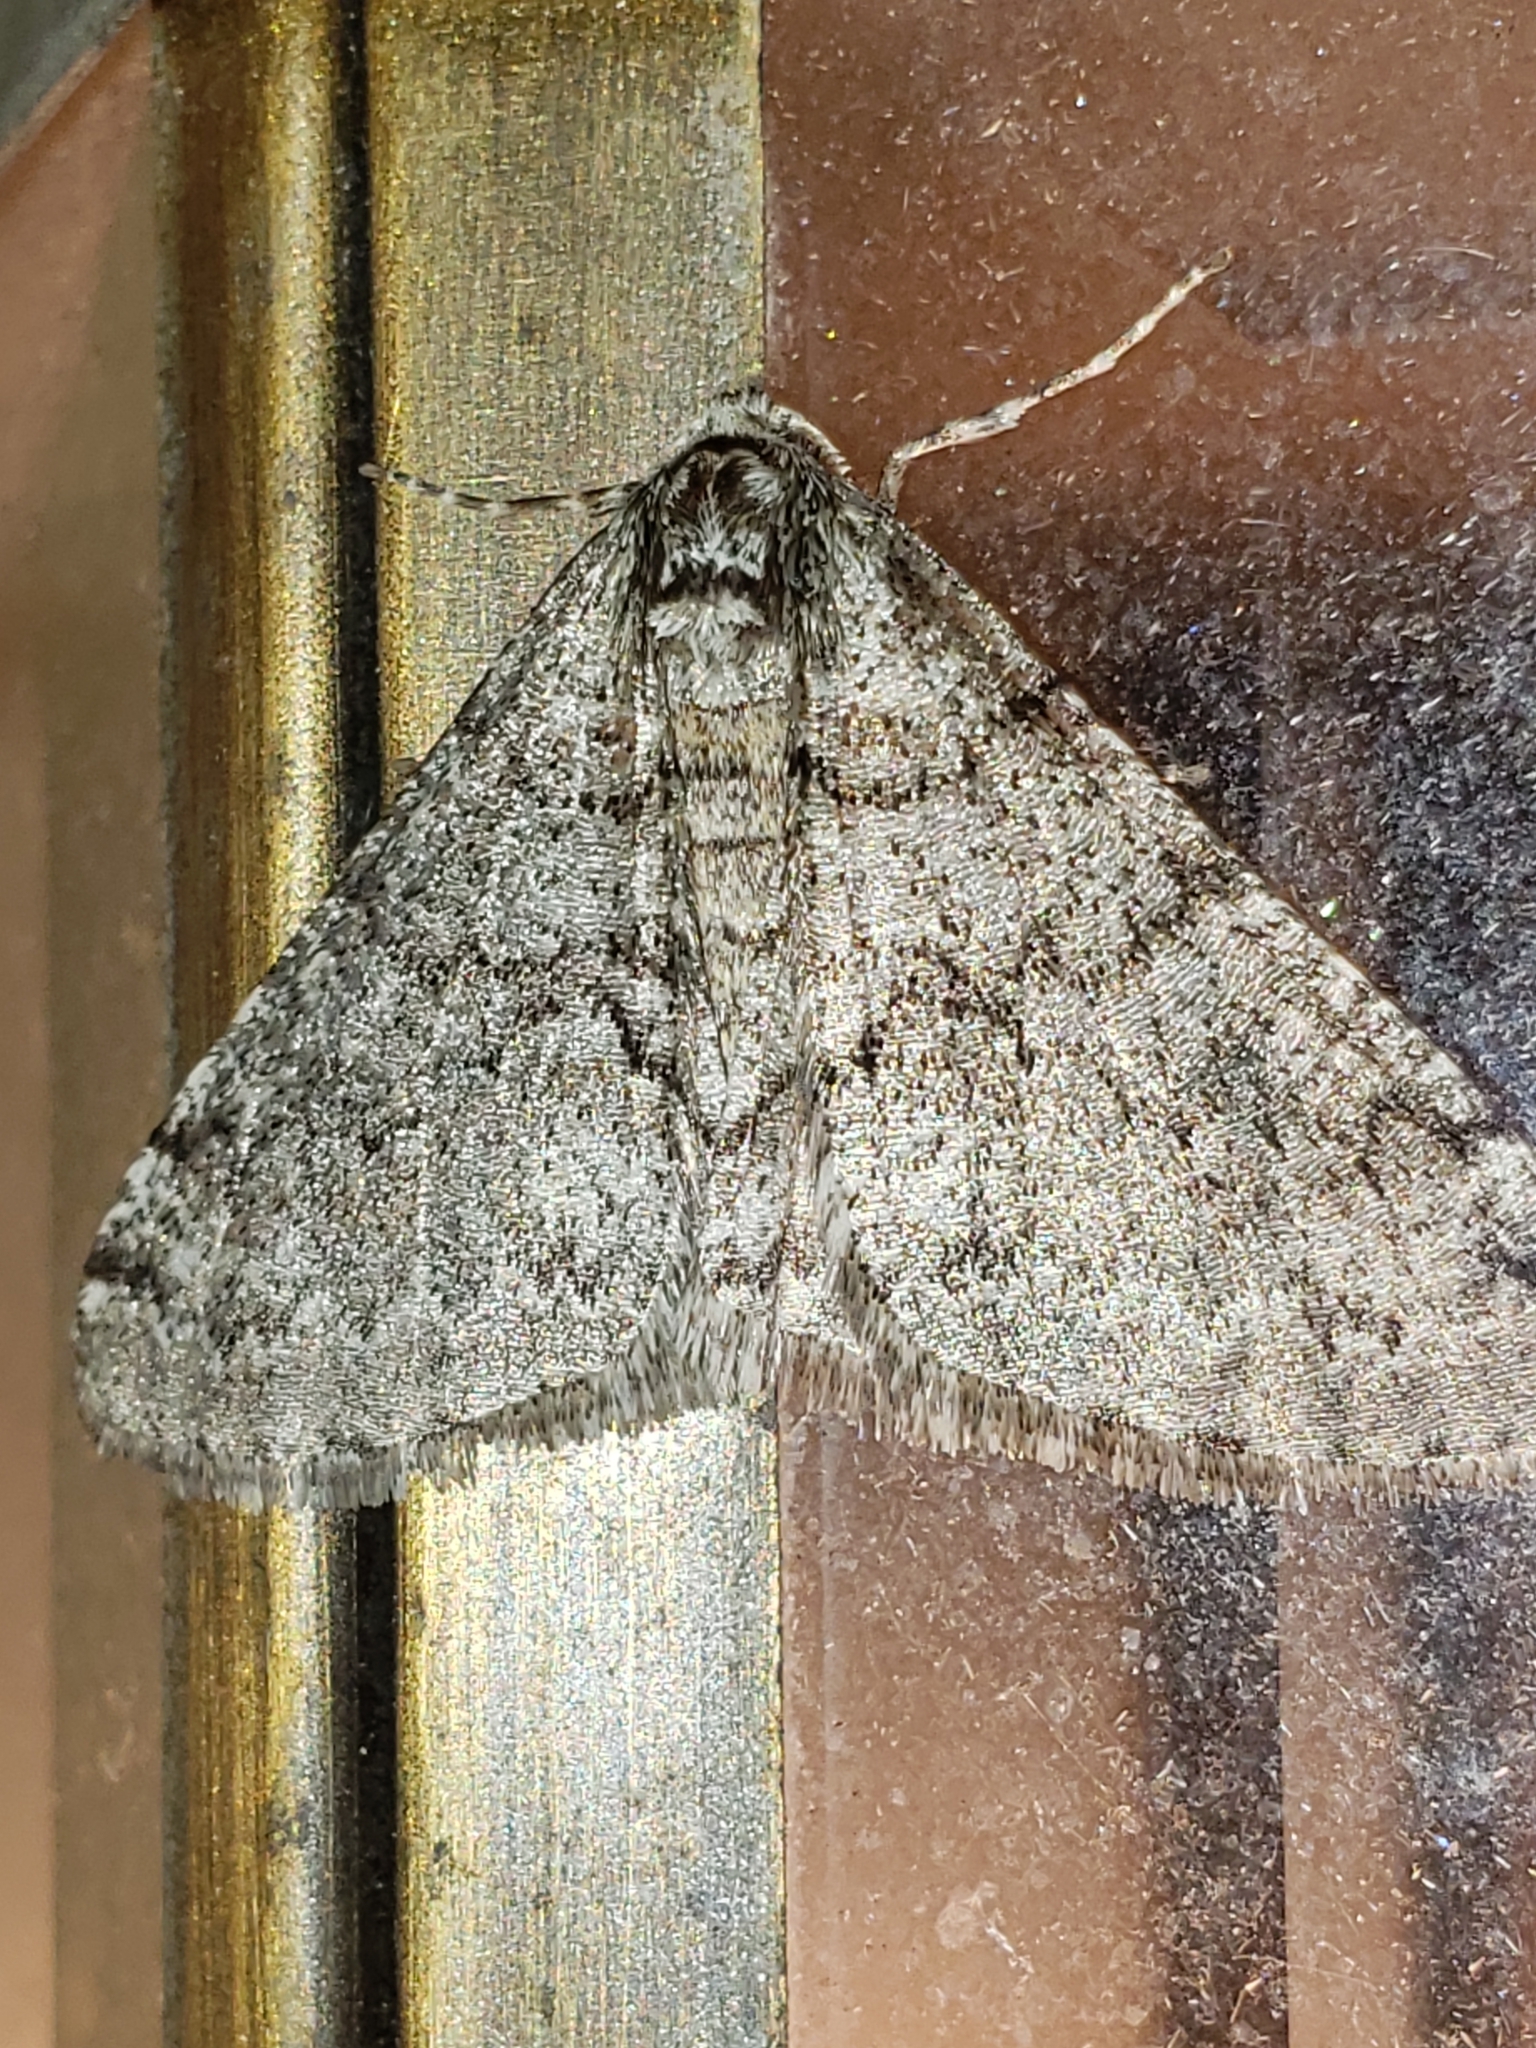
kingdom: Animalia
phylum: Arthropoda
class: Insecta
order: Lepidoptera
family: Geometridae
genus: Phigalia
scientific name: Phigalia denticulata
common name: Toothed phigalia
